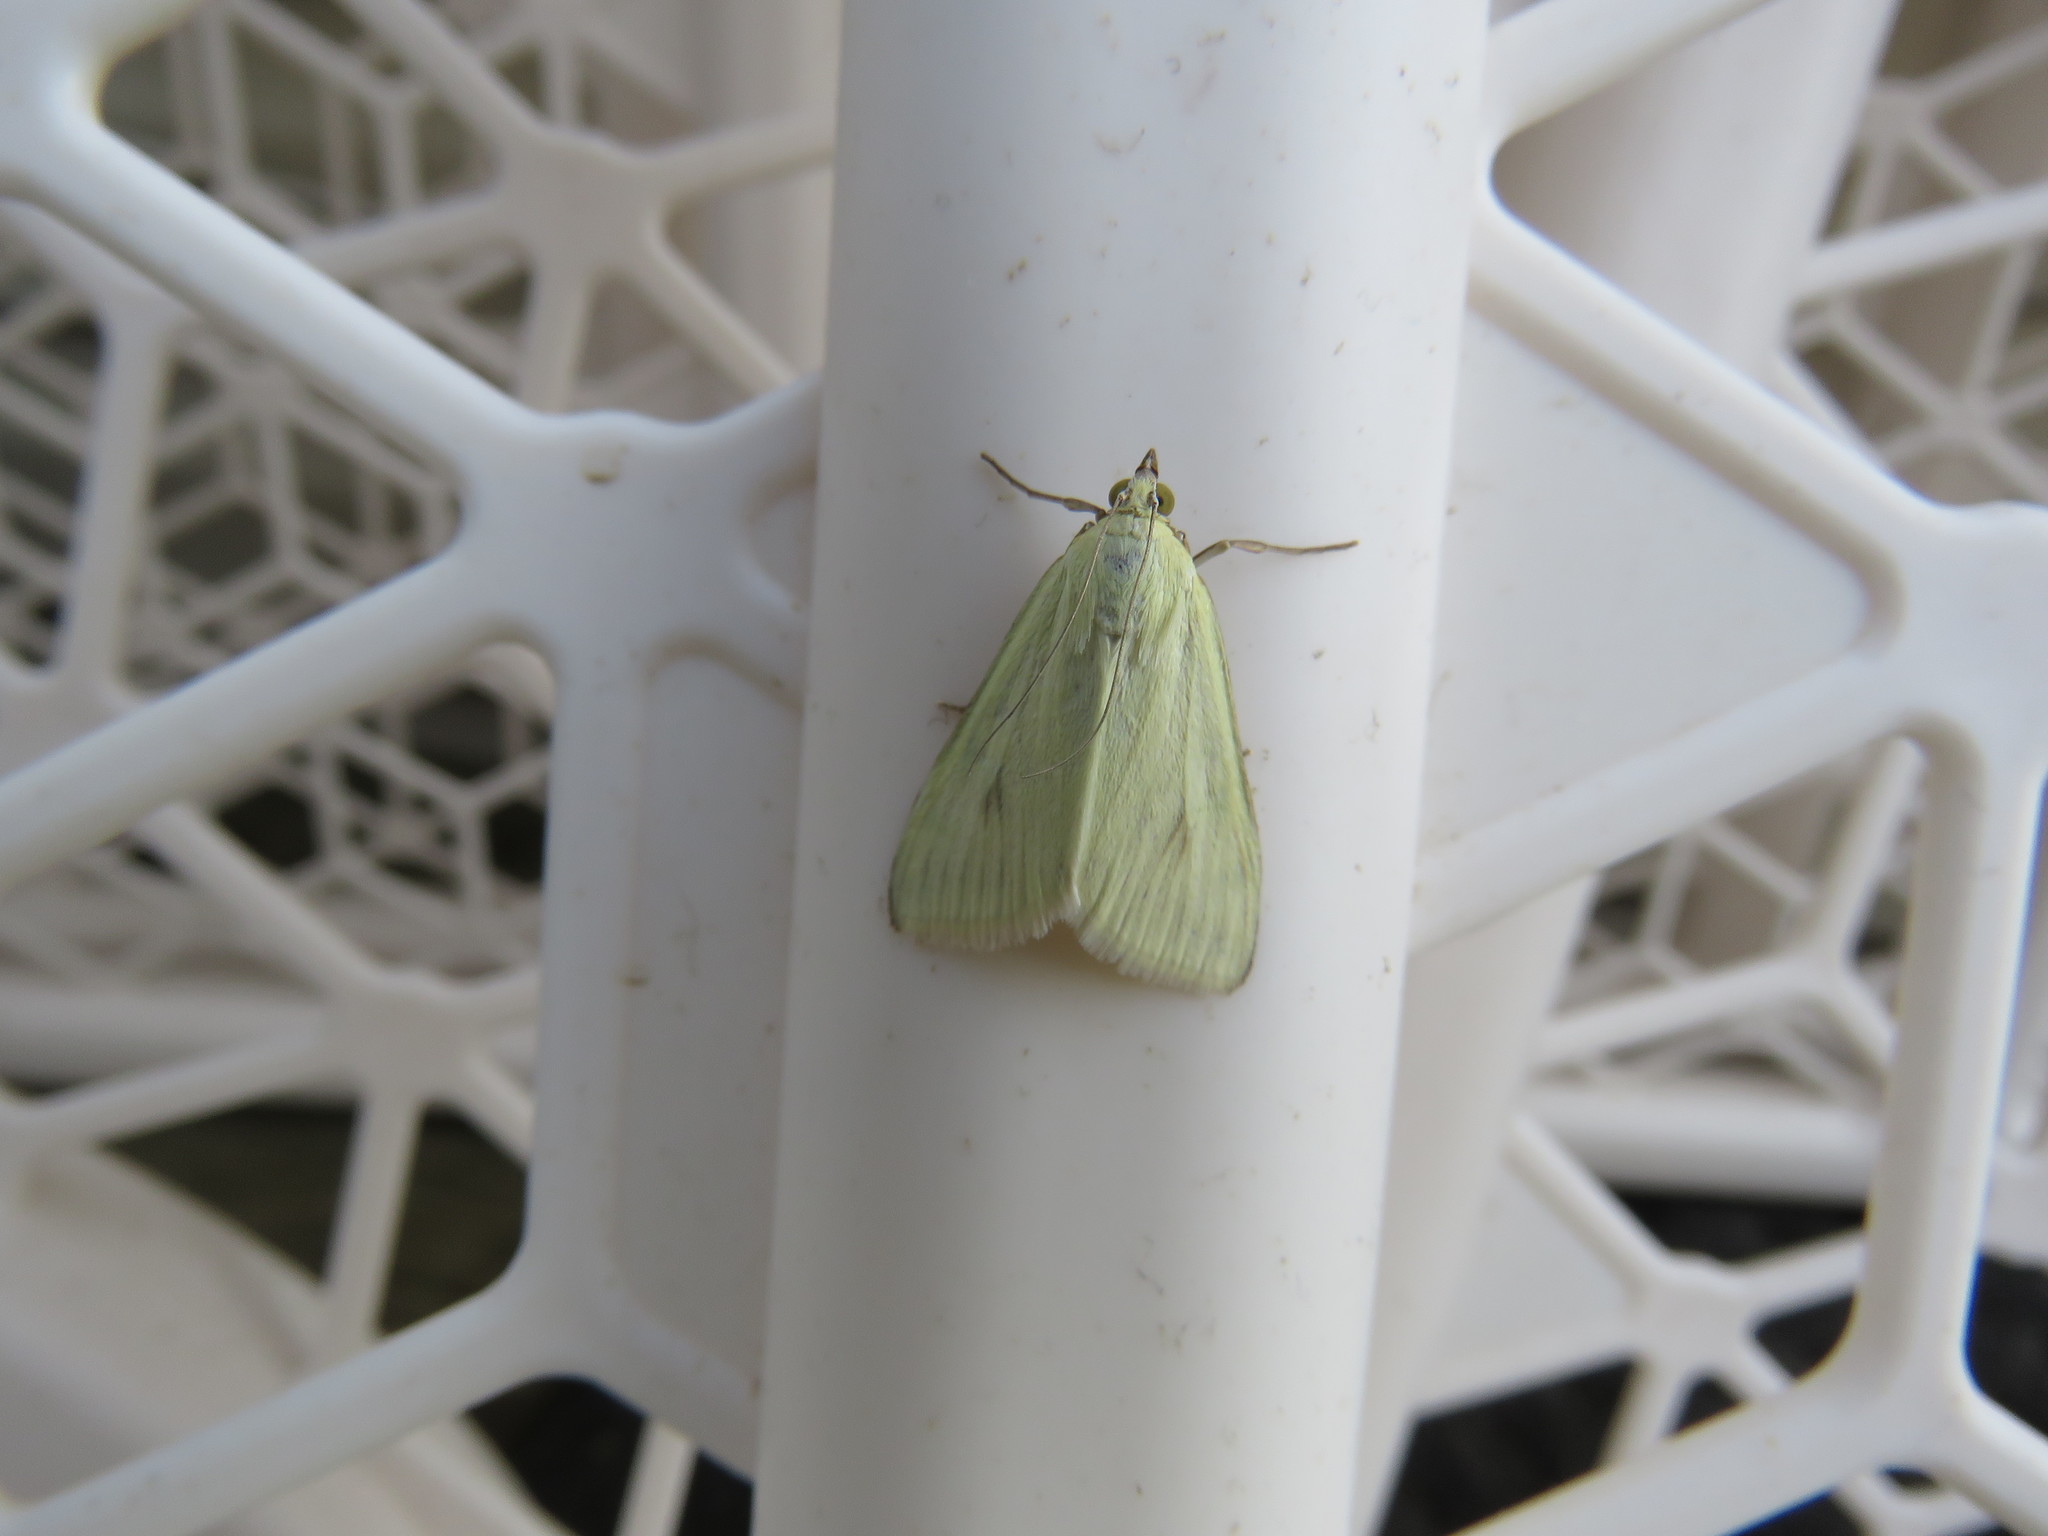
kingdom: Animalia
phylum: Arthropoda
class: Insecta
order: Lepidoptera
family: Crambidae
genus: Sitochroa
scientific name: Sitochroa palealis
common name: Greenish-yellow sitochroa moth
